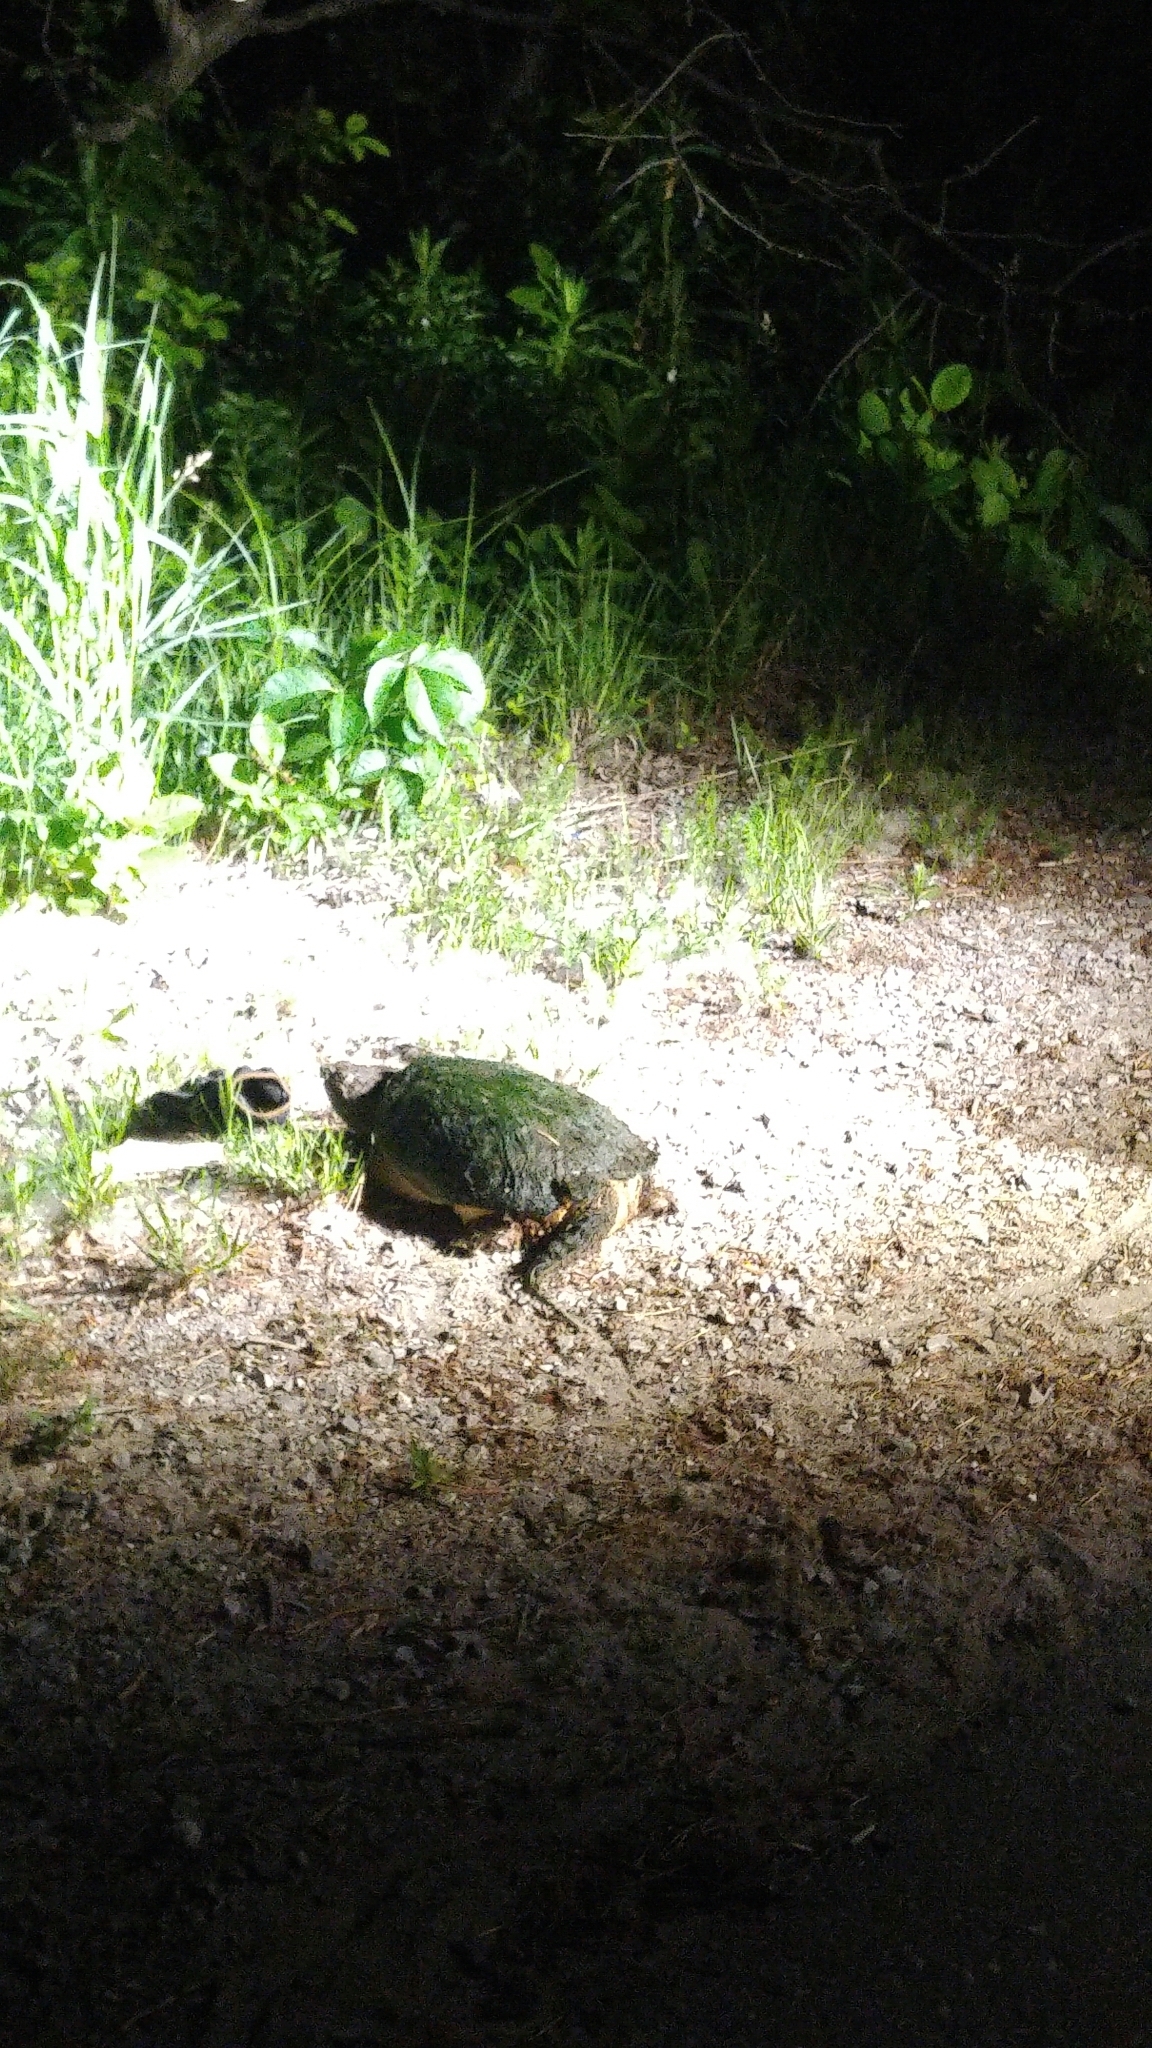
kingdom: Animalia
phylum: Chordata
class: Testudines
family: Chelydridae
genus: Chelydra
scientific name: Chelydra serpentina
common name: Common snapping turtle
